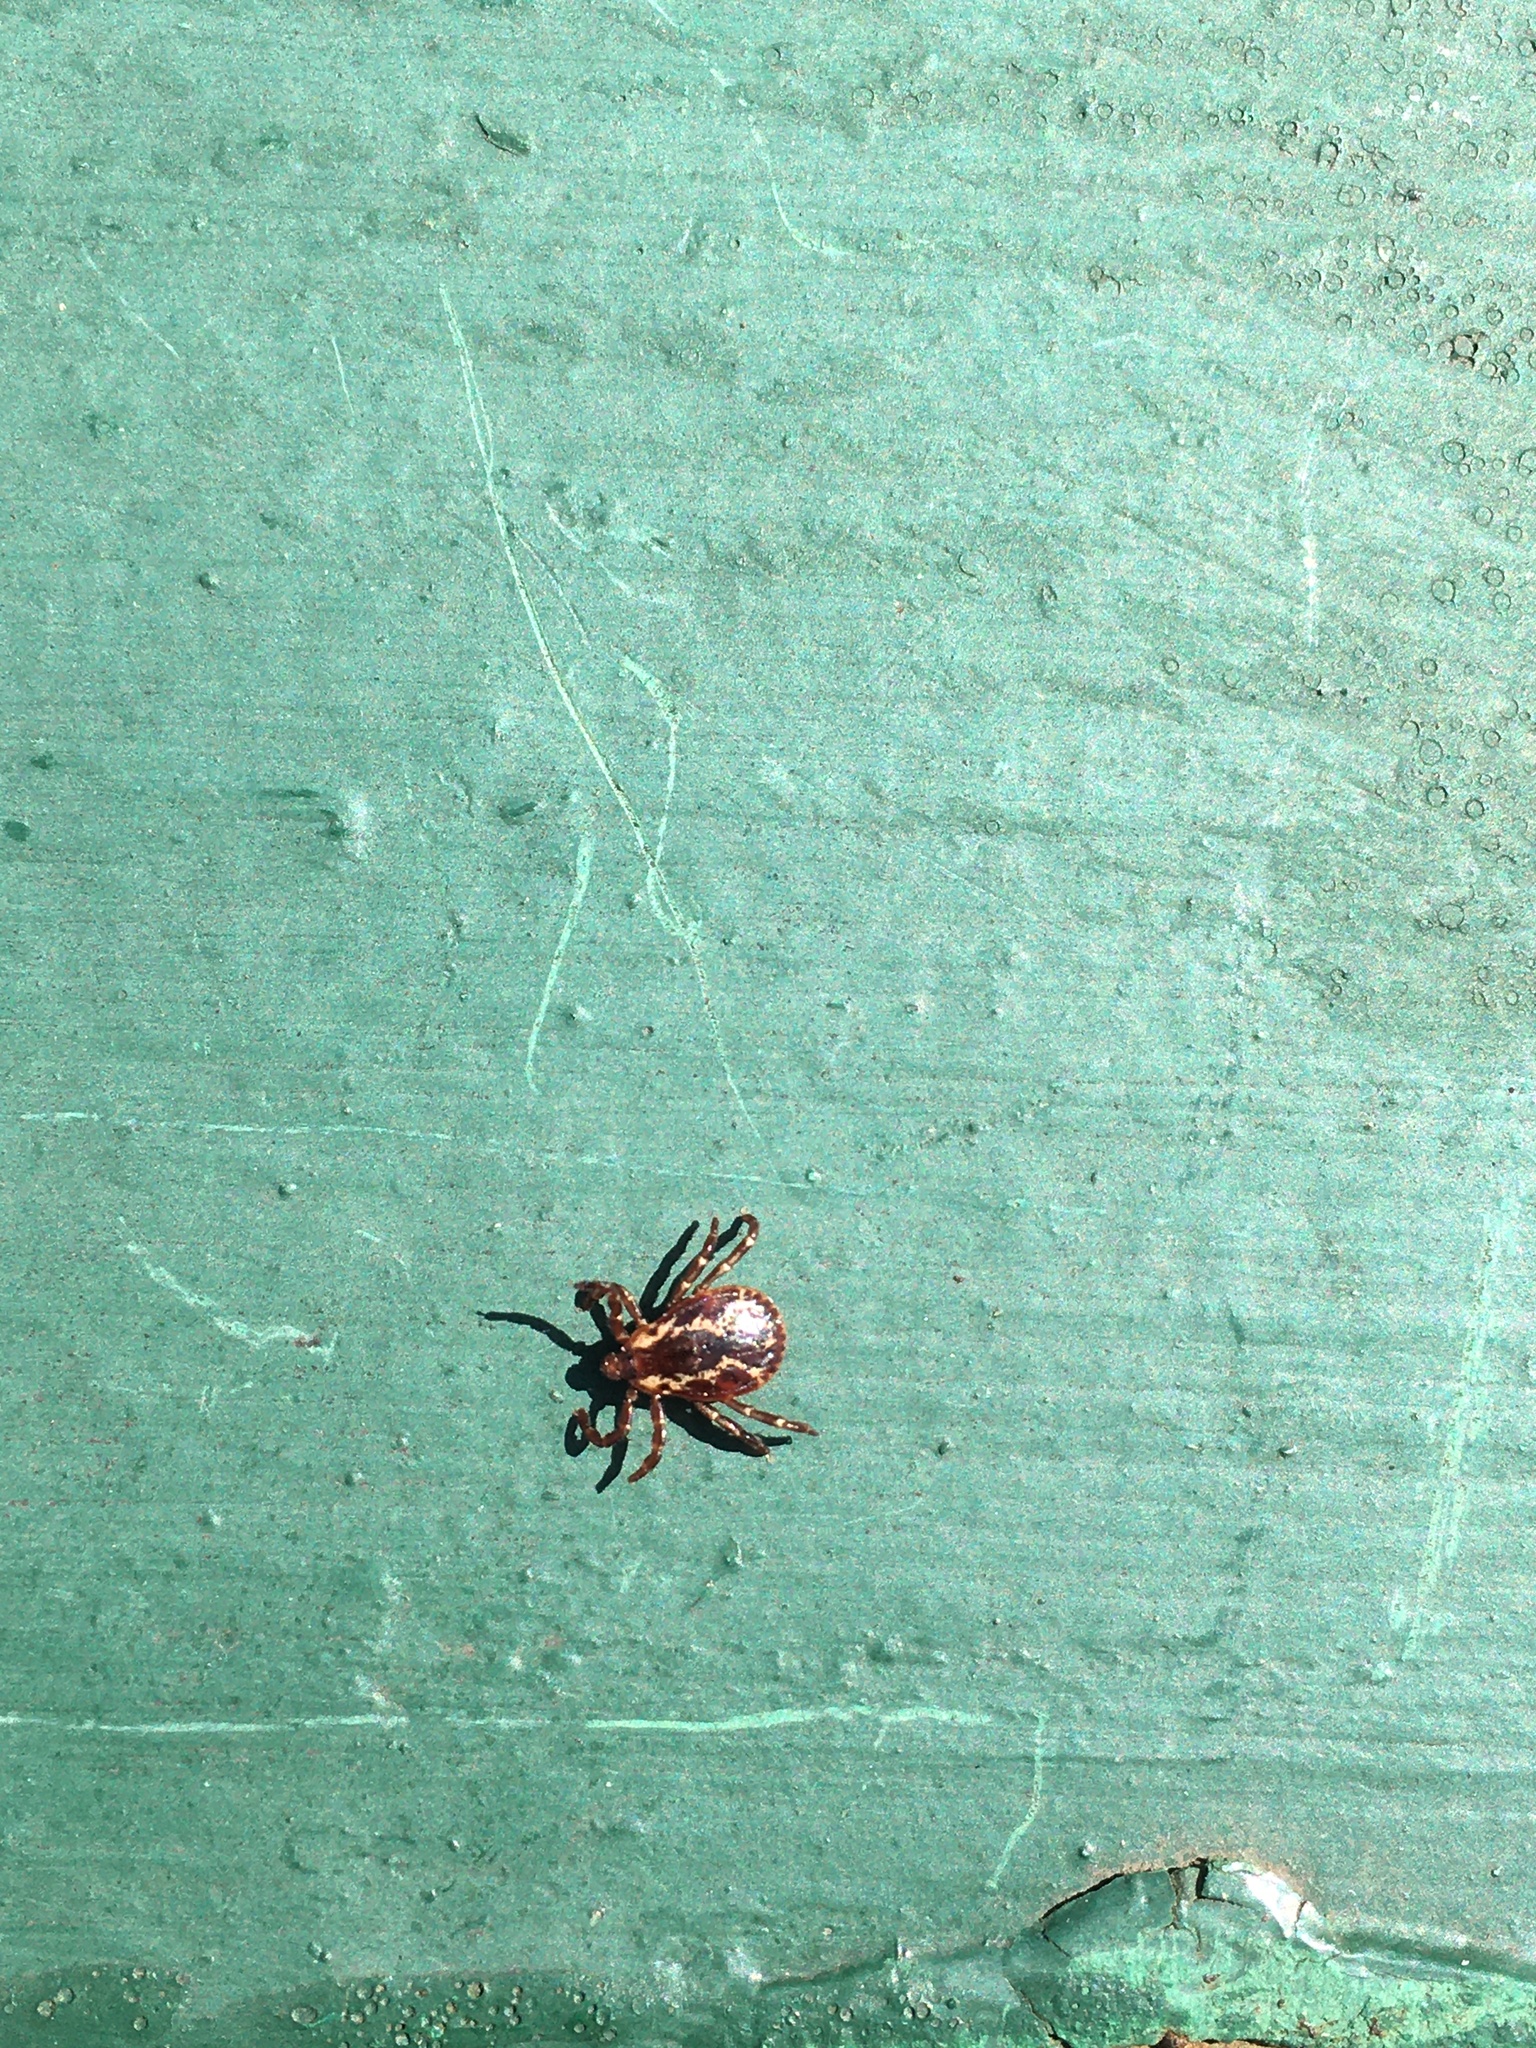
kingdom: Animalia
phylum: Arthropoda
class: Arachnida
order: Ixodida
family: Ixodidae
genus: Dermacentor
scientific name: Dermacentor variabilis
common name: American dog tick
